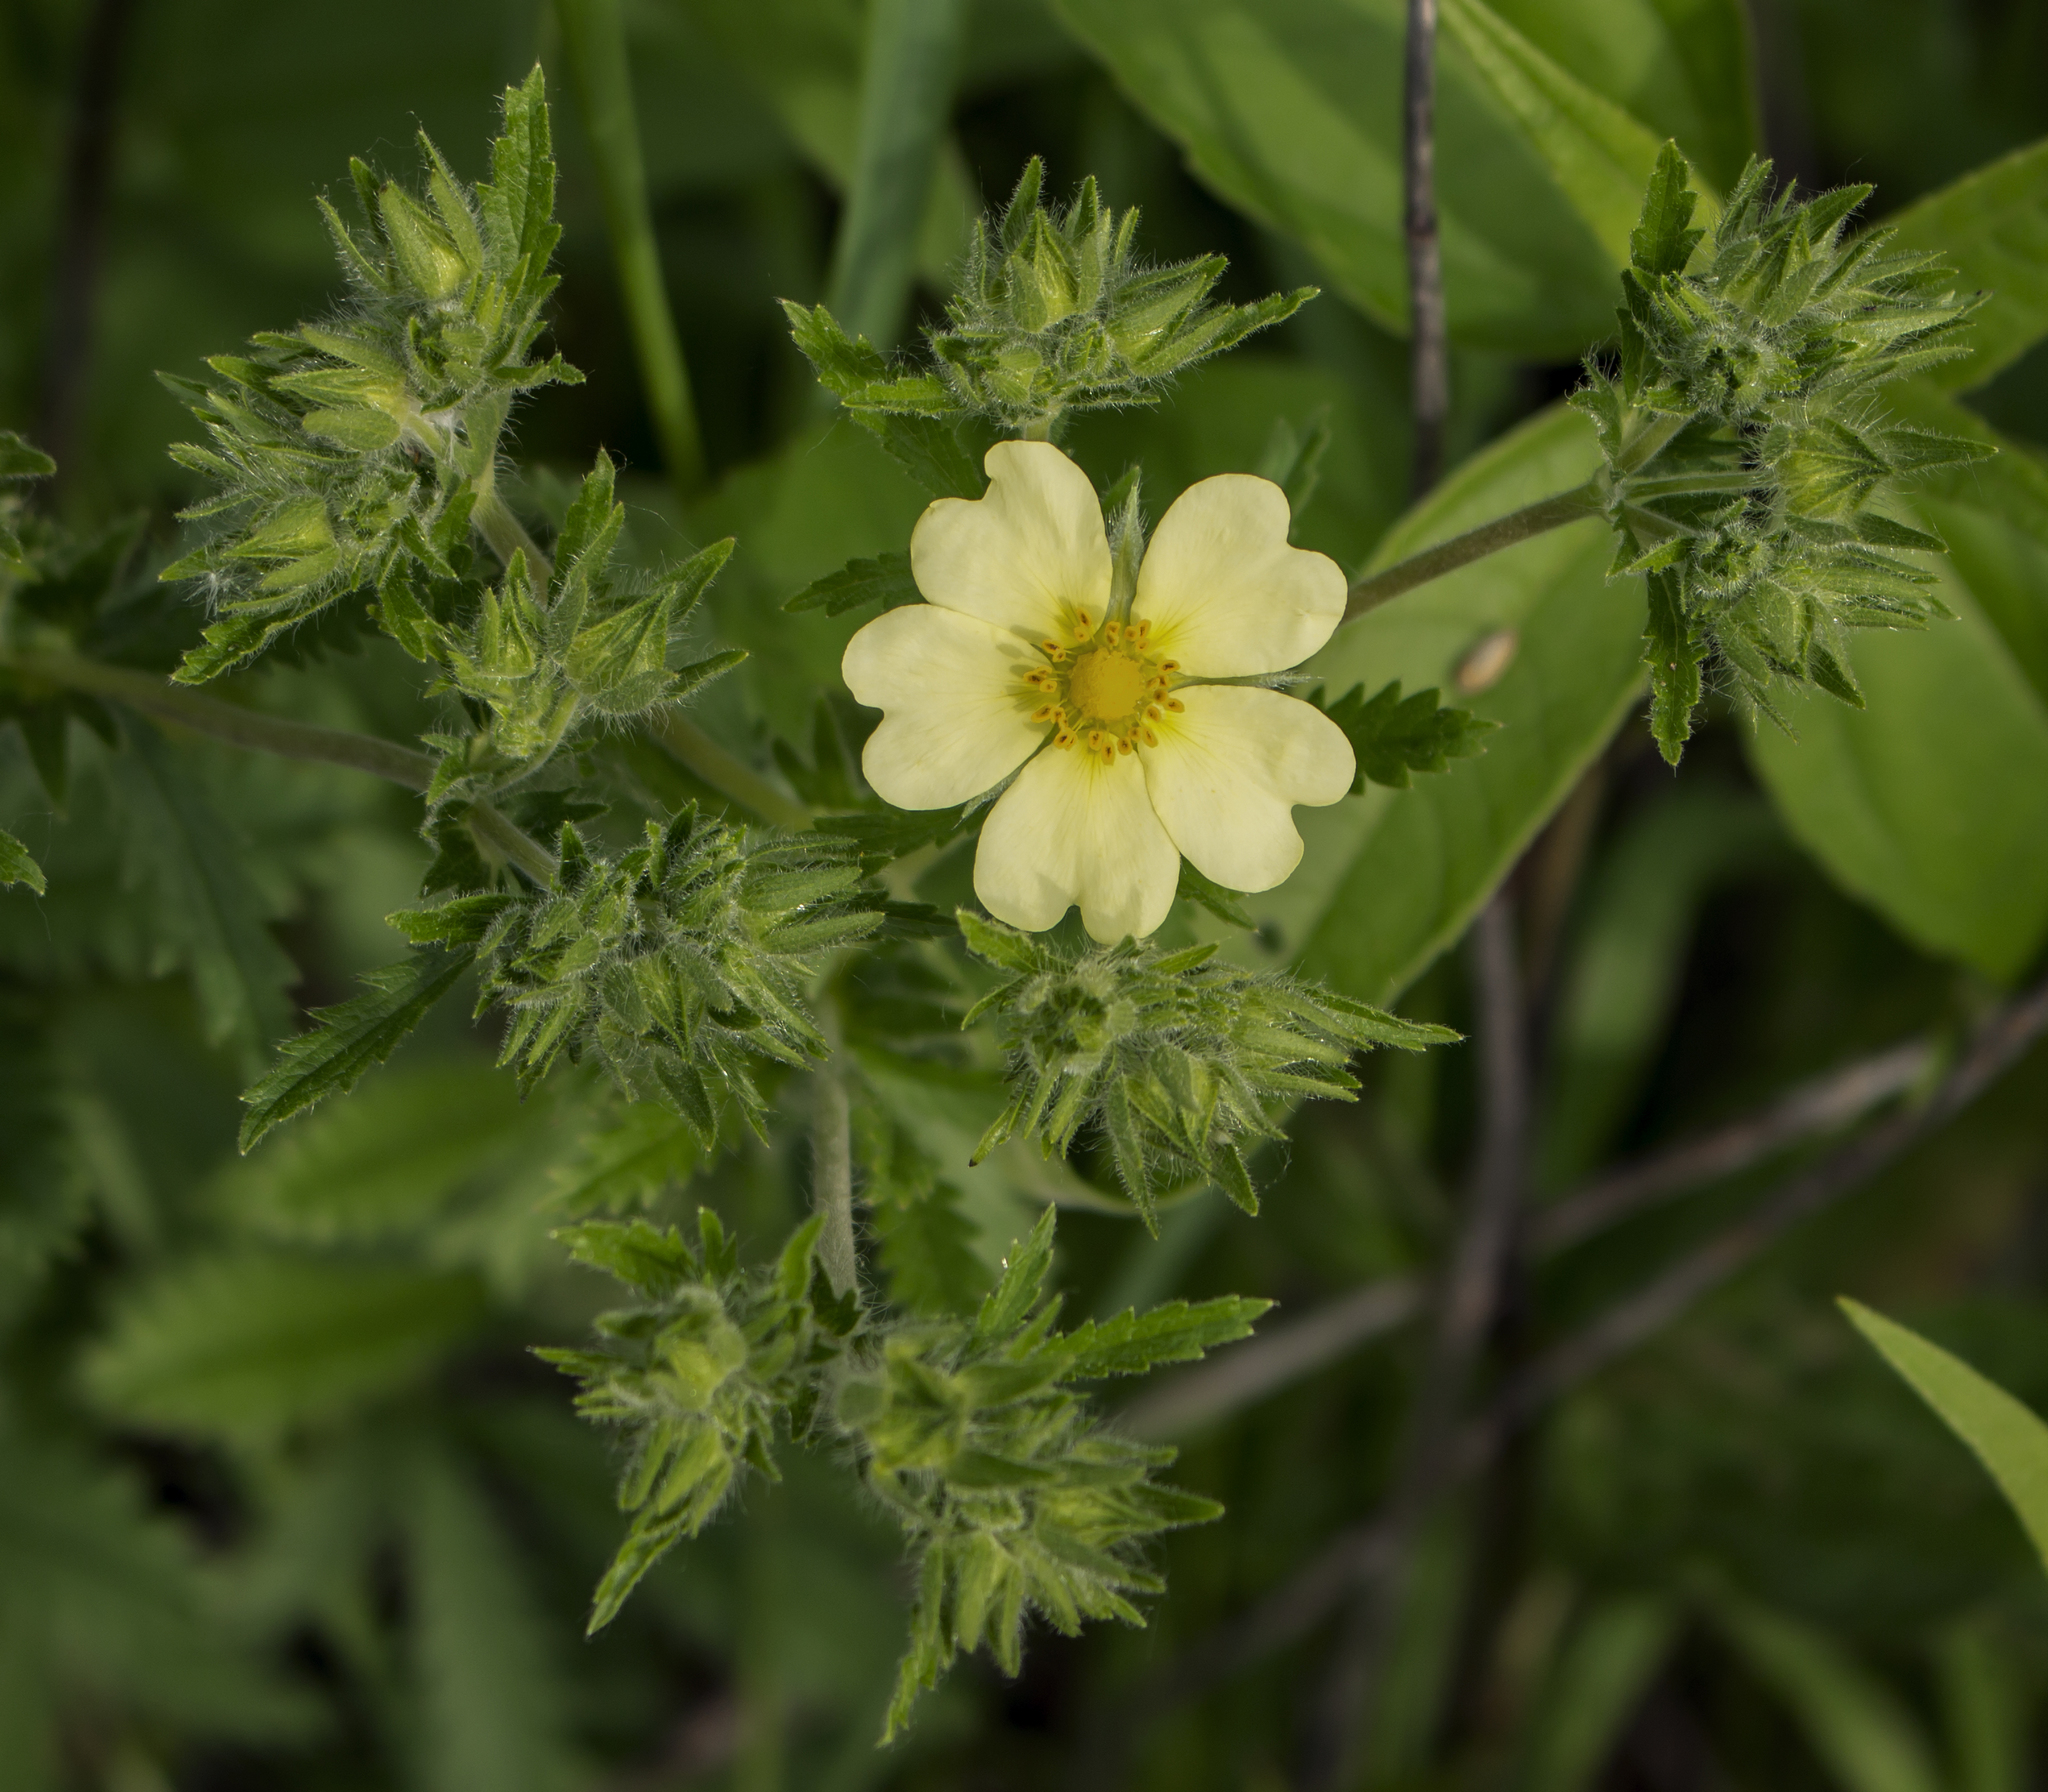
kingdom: Plantae
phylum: Tracheophyta
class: Magnoliopsida
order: Rosales
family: Rosaceae
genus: Potentilla
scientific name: Potentilla recta
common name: Sulphur cinquefoil
